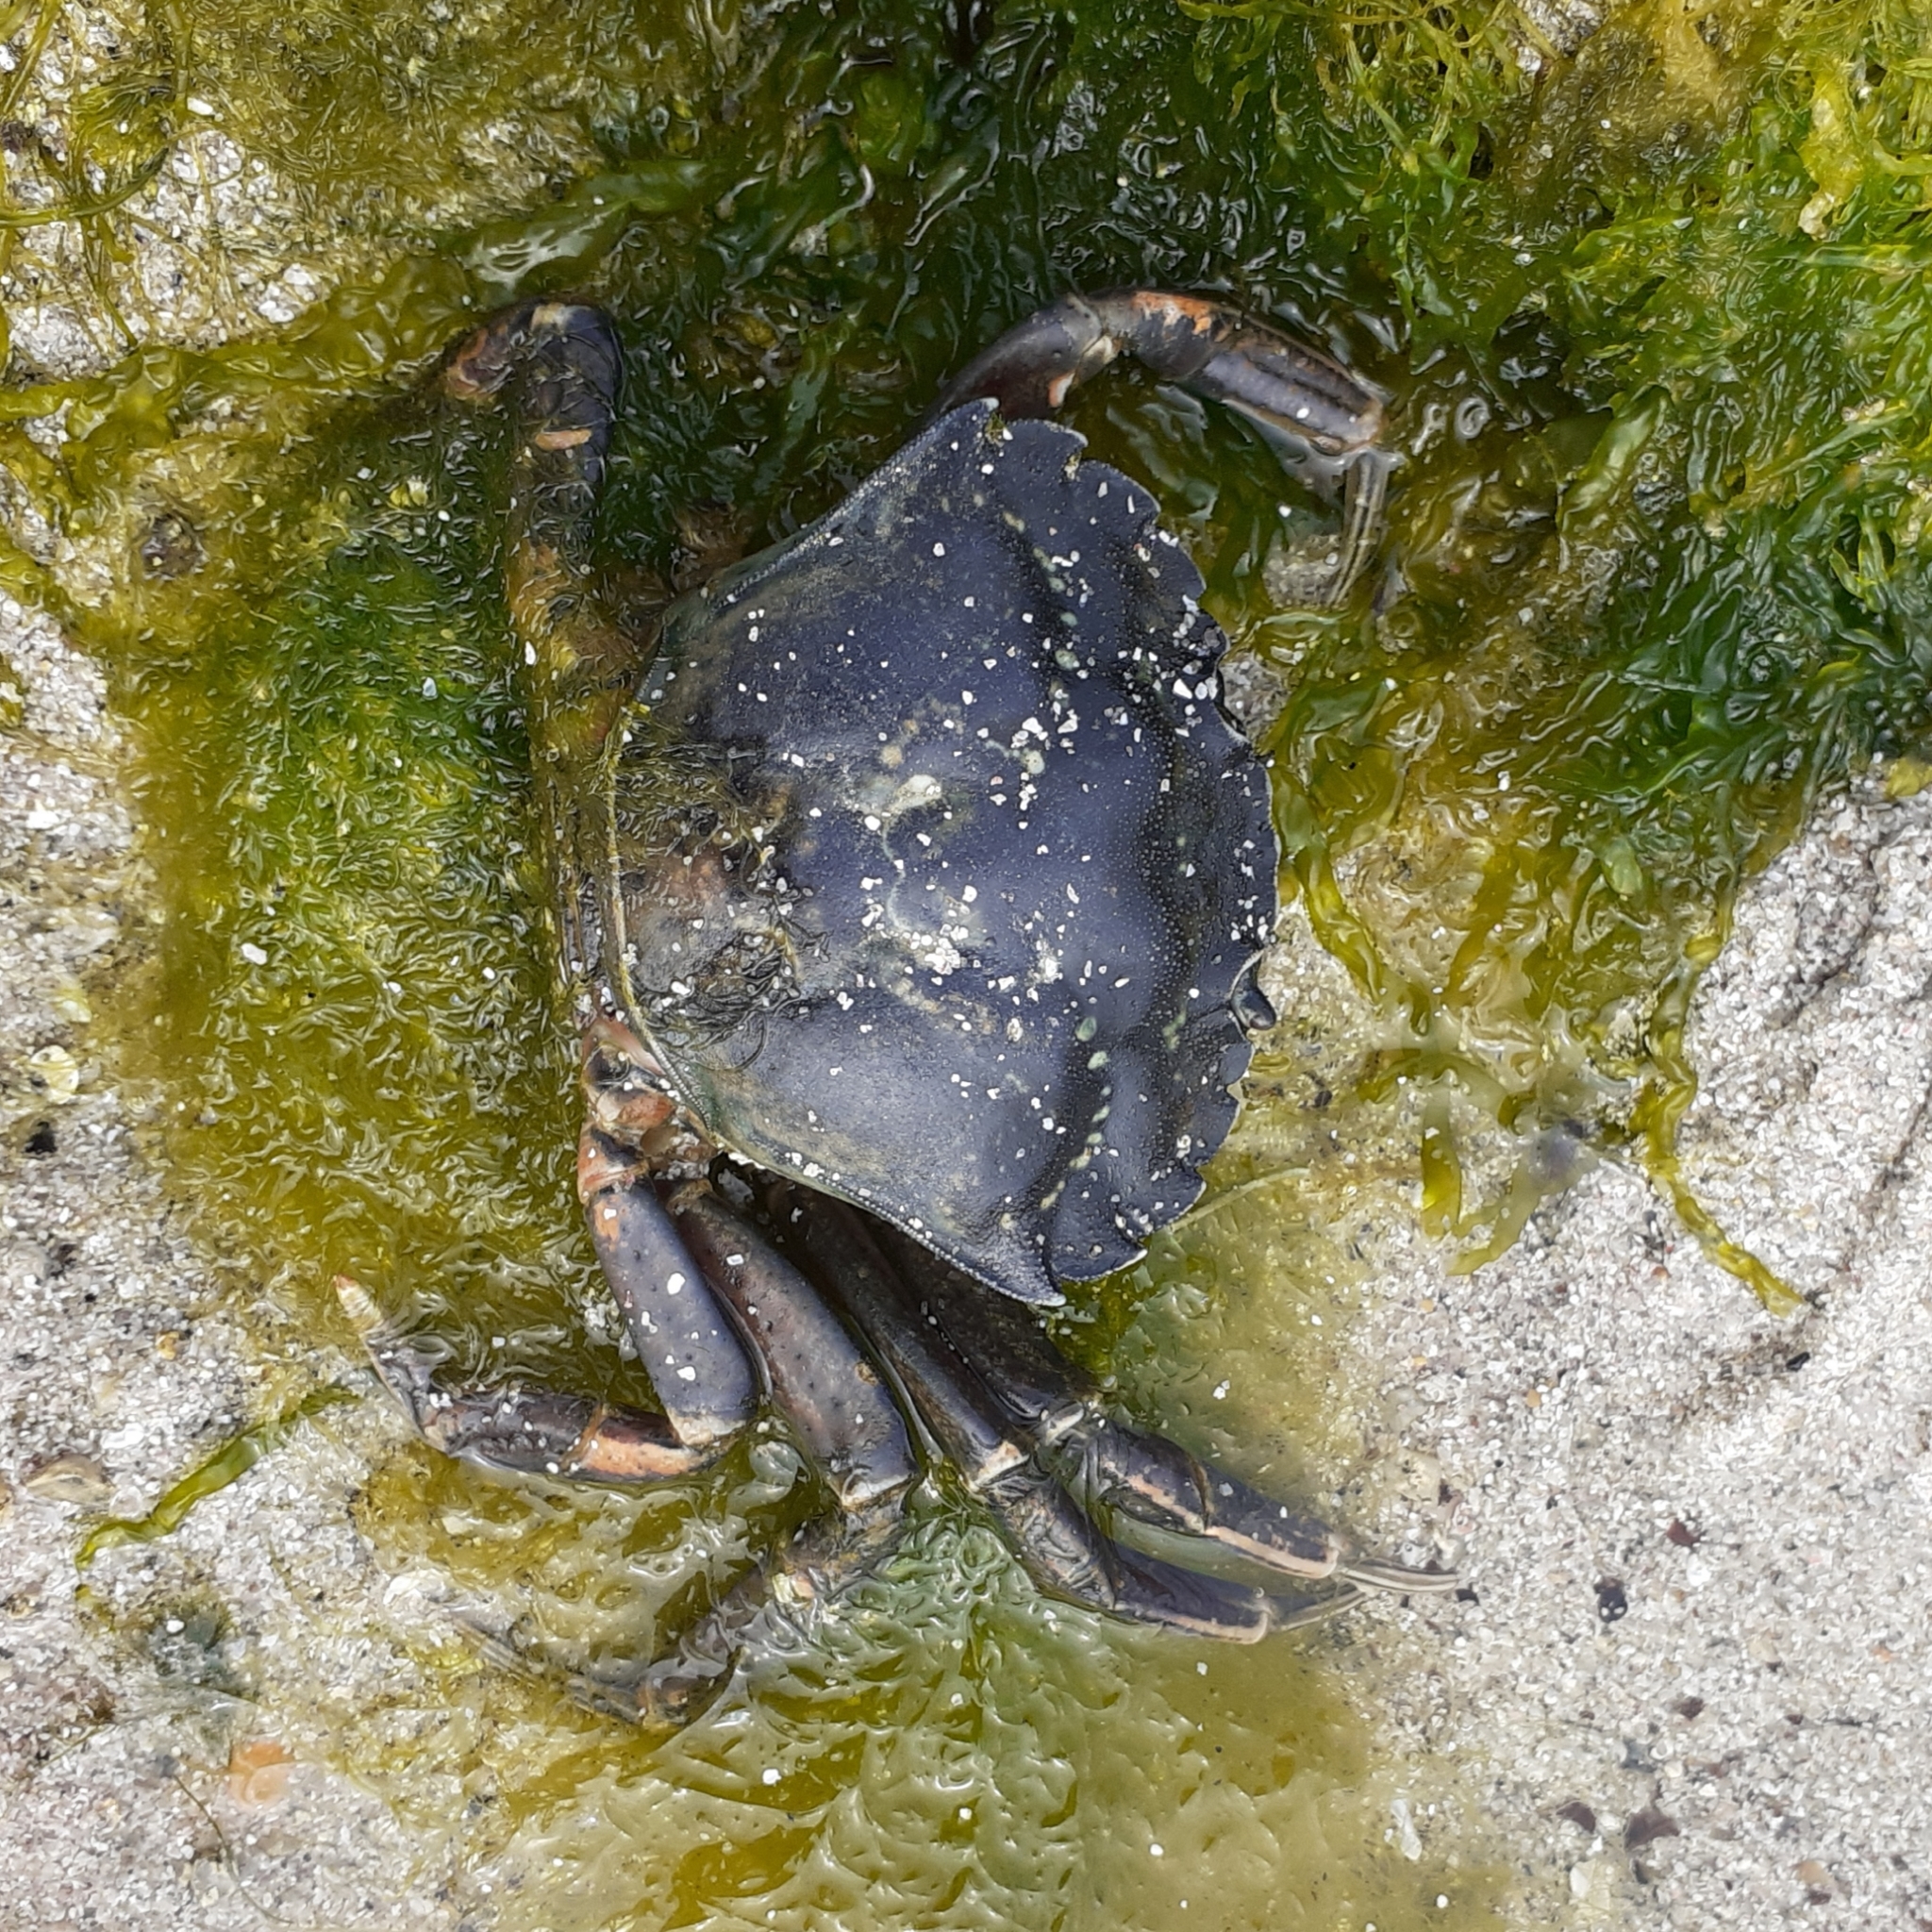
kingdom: Animalia
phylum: Arthropoda
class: Malacostraca
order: Decapoda
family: Carcinidae
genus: Carcinus
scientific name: Carcinus maenas
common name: European green crab
